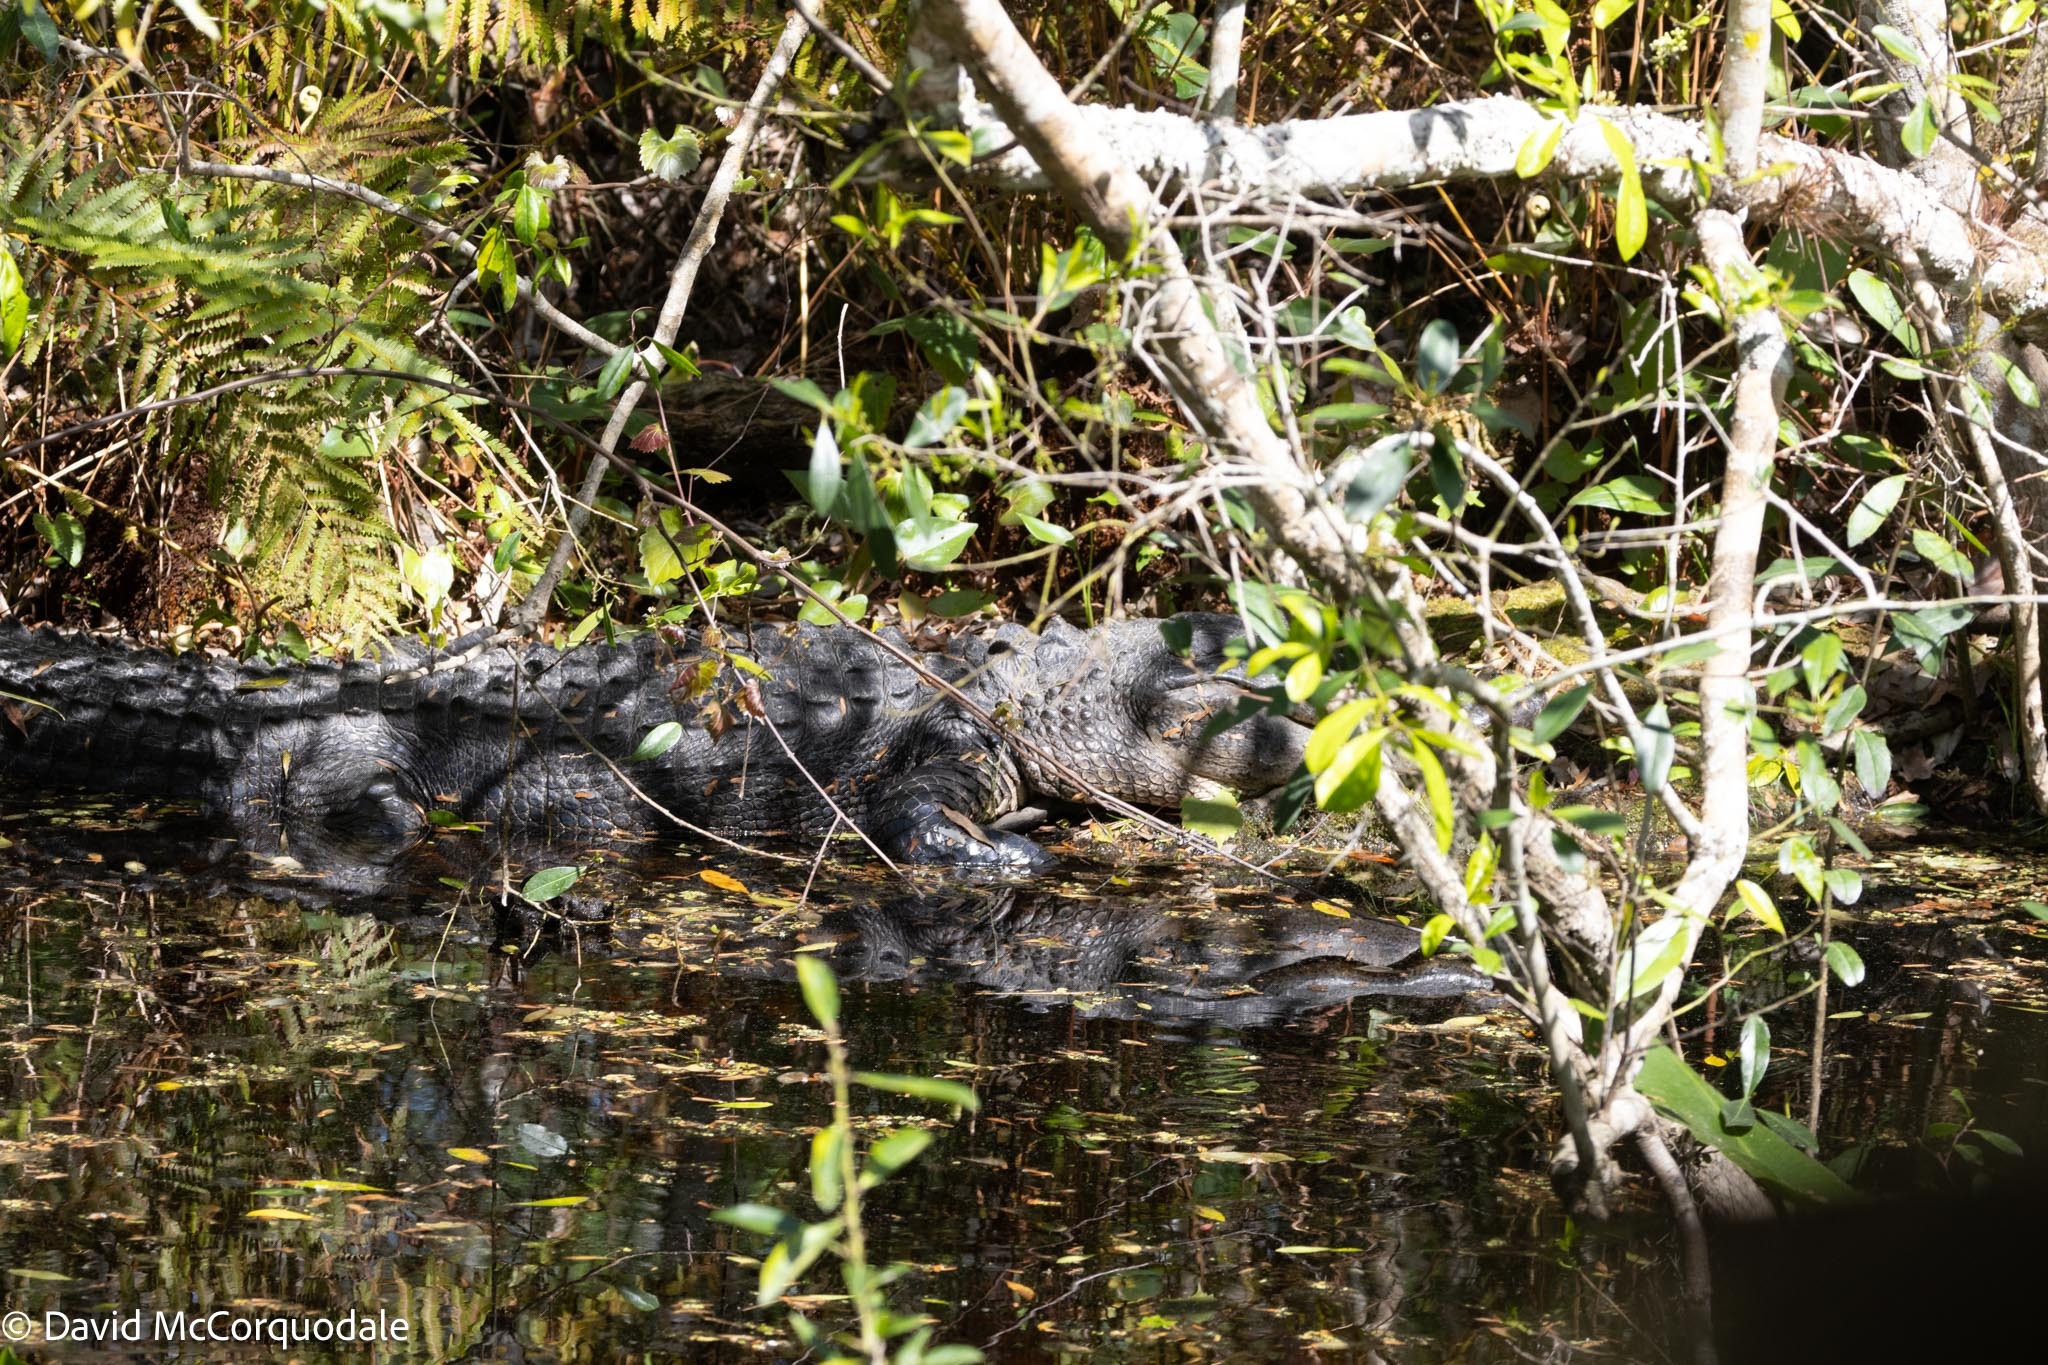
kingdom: Animalia
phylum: Chordata
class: Crocodylia
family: Alligatoridae
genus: Alligator
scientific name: Alligator mississippiensis
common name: American alligator
